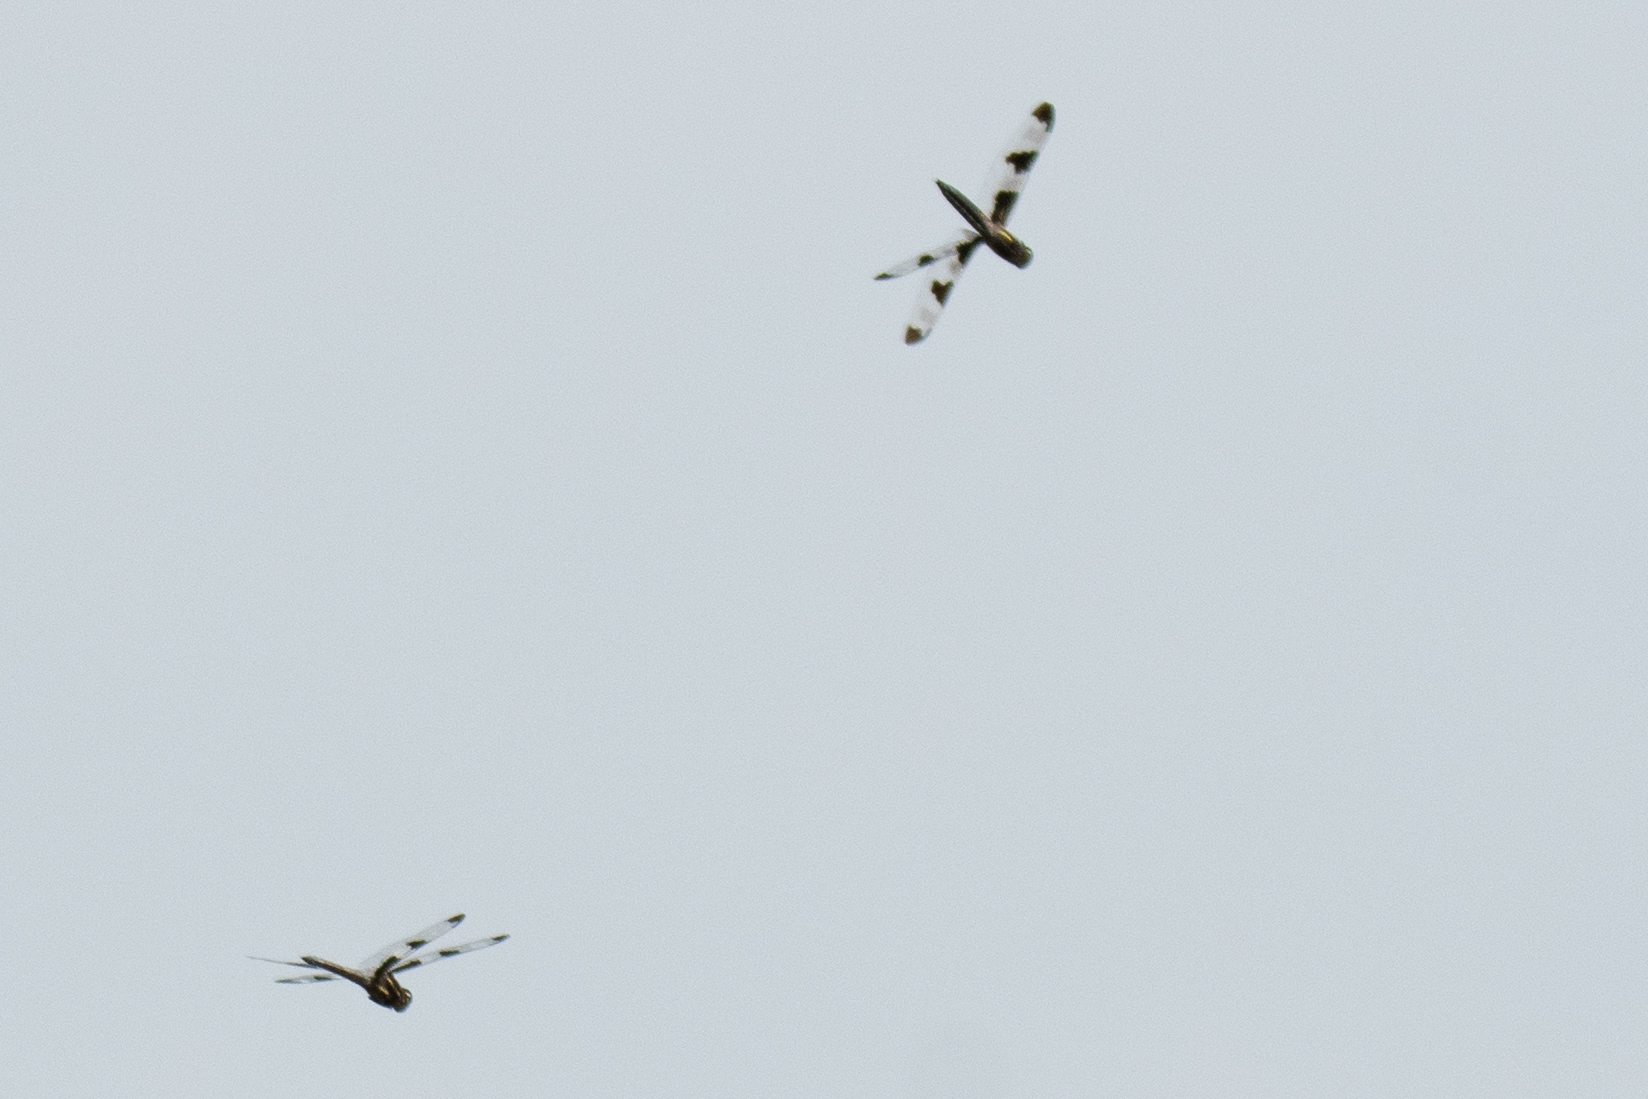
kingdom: Animalia
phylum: Arthropoda
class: Insecta
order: Odonata
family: Libellulidae
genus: Libellula
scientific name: Libellula pulchella
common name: Twelve-spotted skimmer
